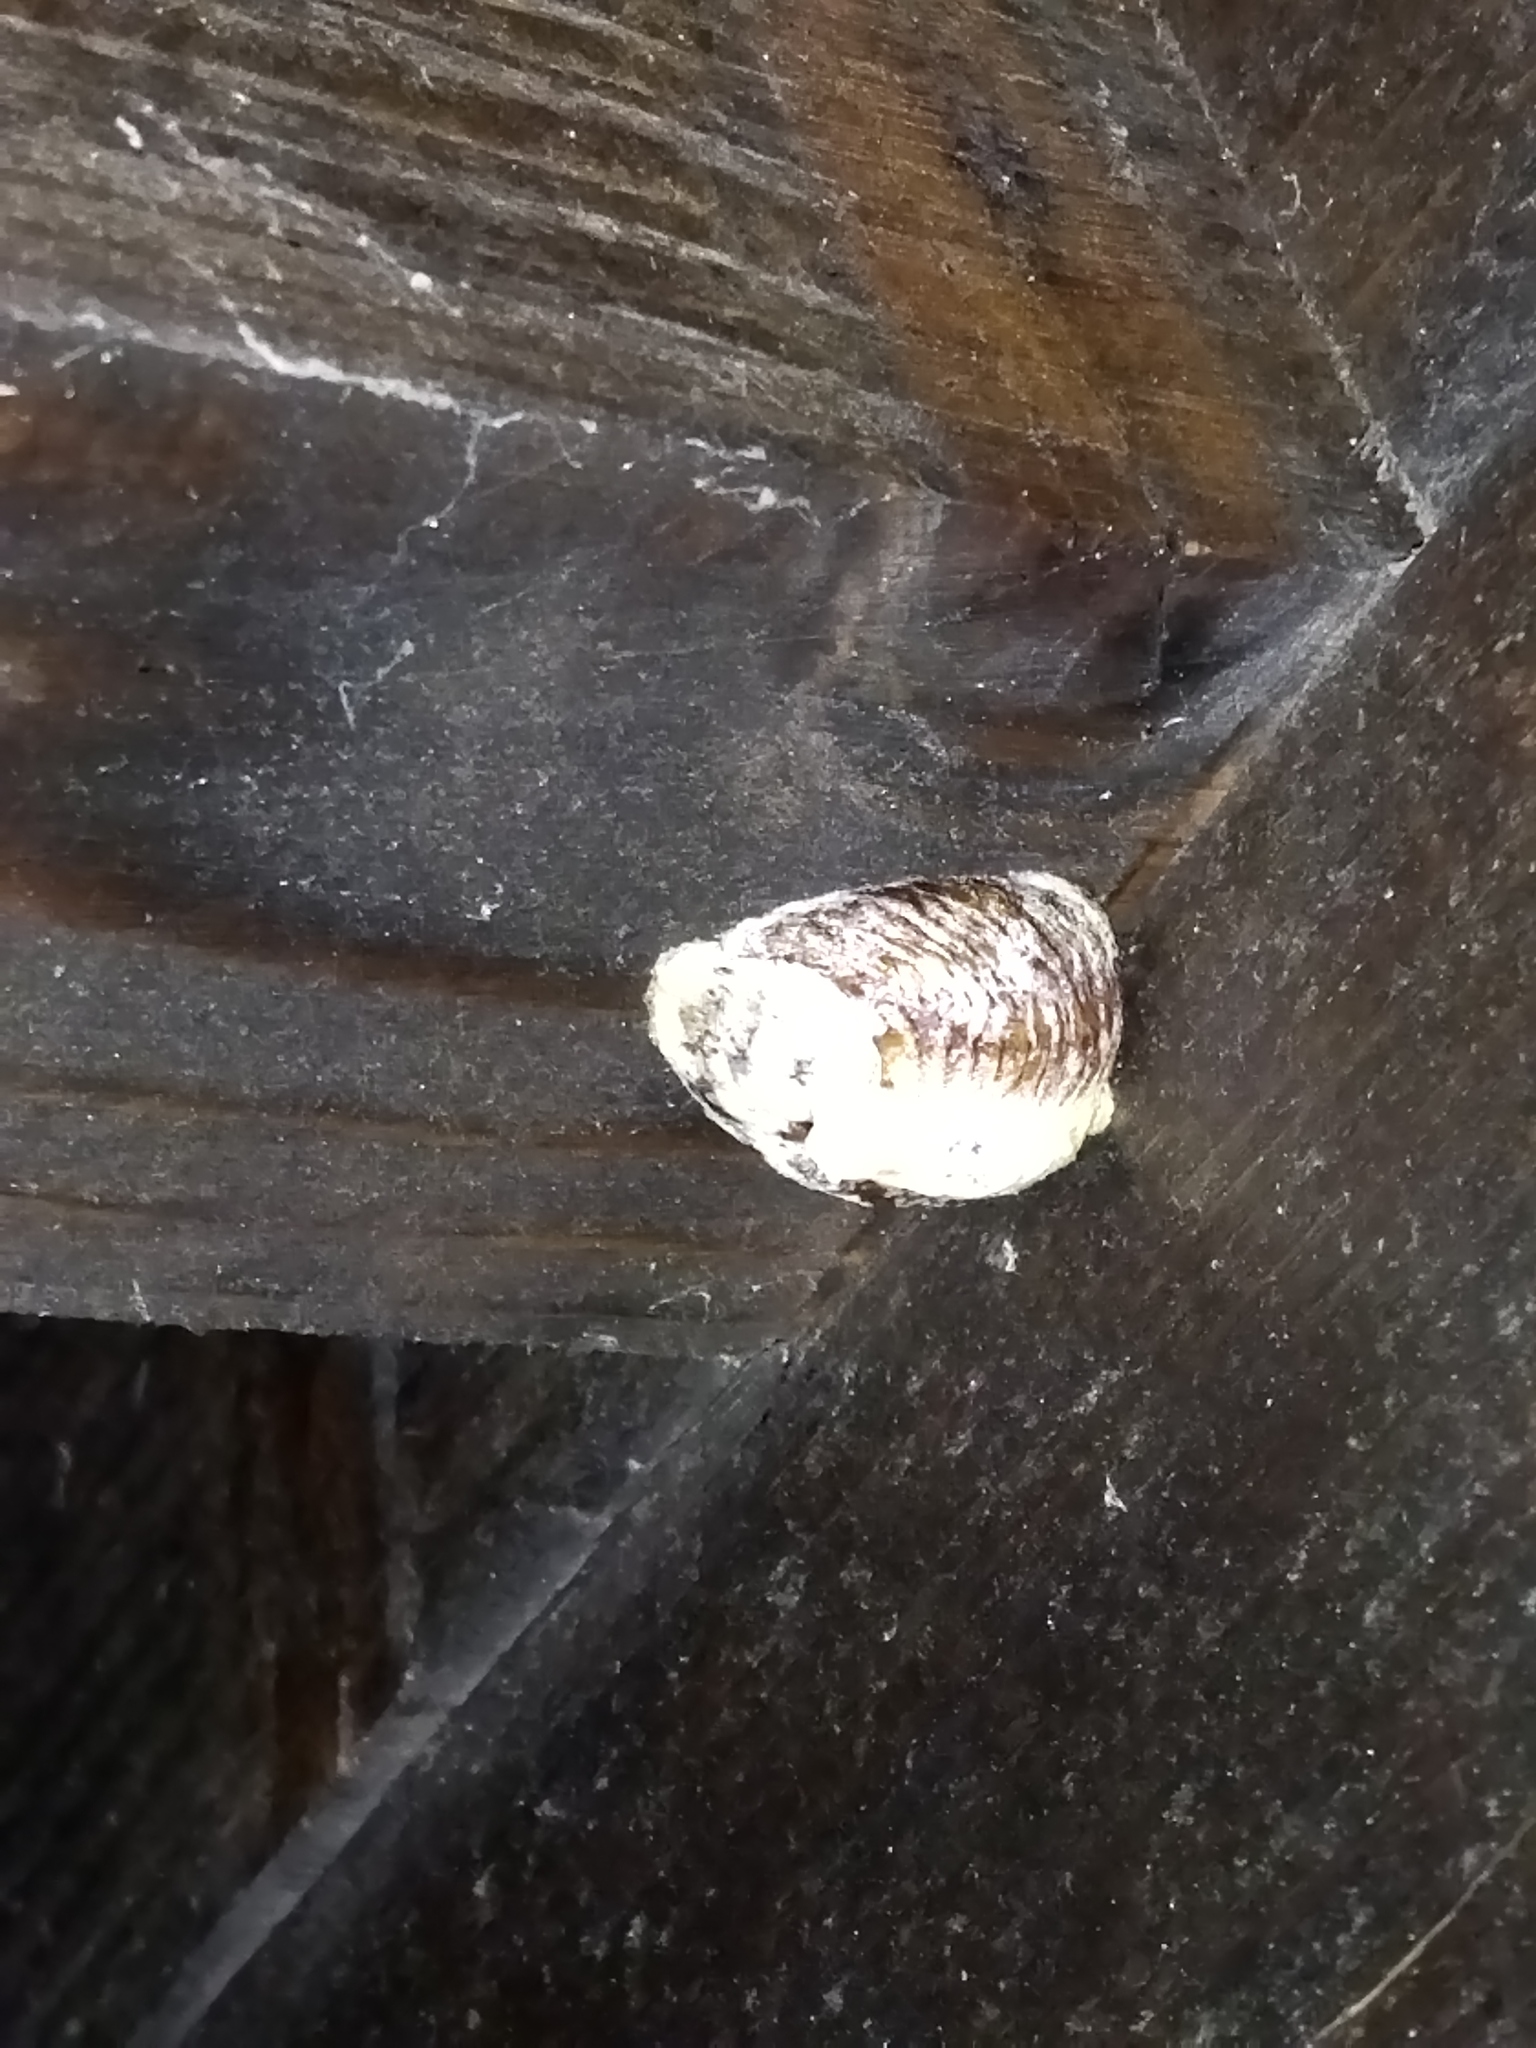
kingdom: Animalia
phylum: Arthropoda
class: Insecta
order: Mantodea
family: Mantidae
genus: Hierodula
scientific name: Hierodula transcaucasica
